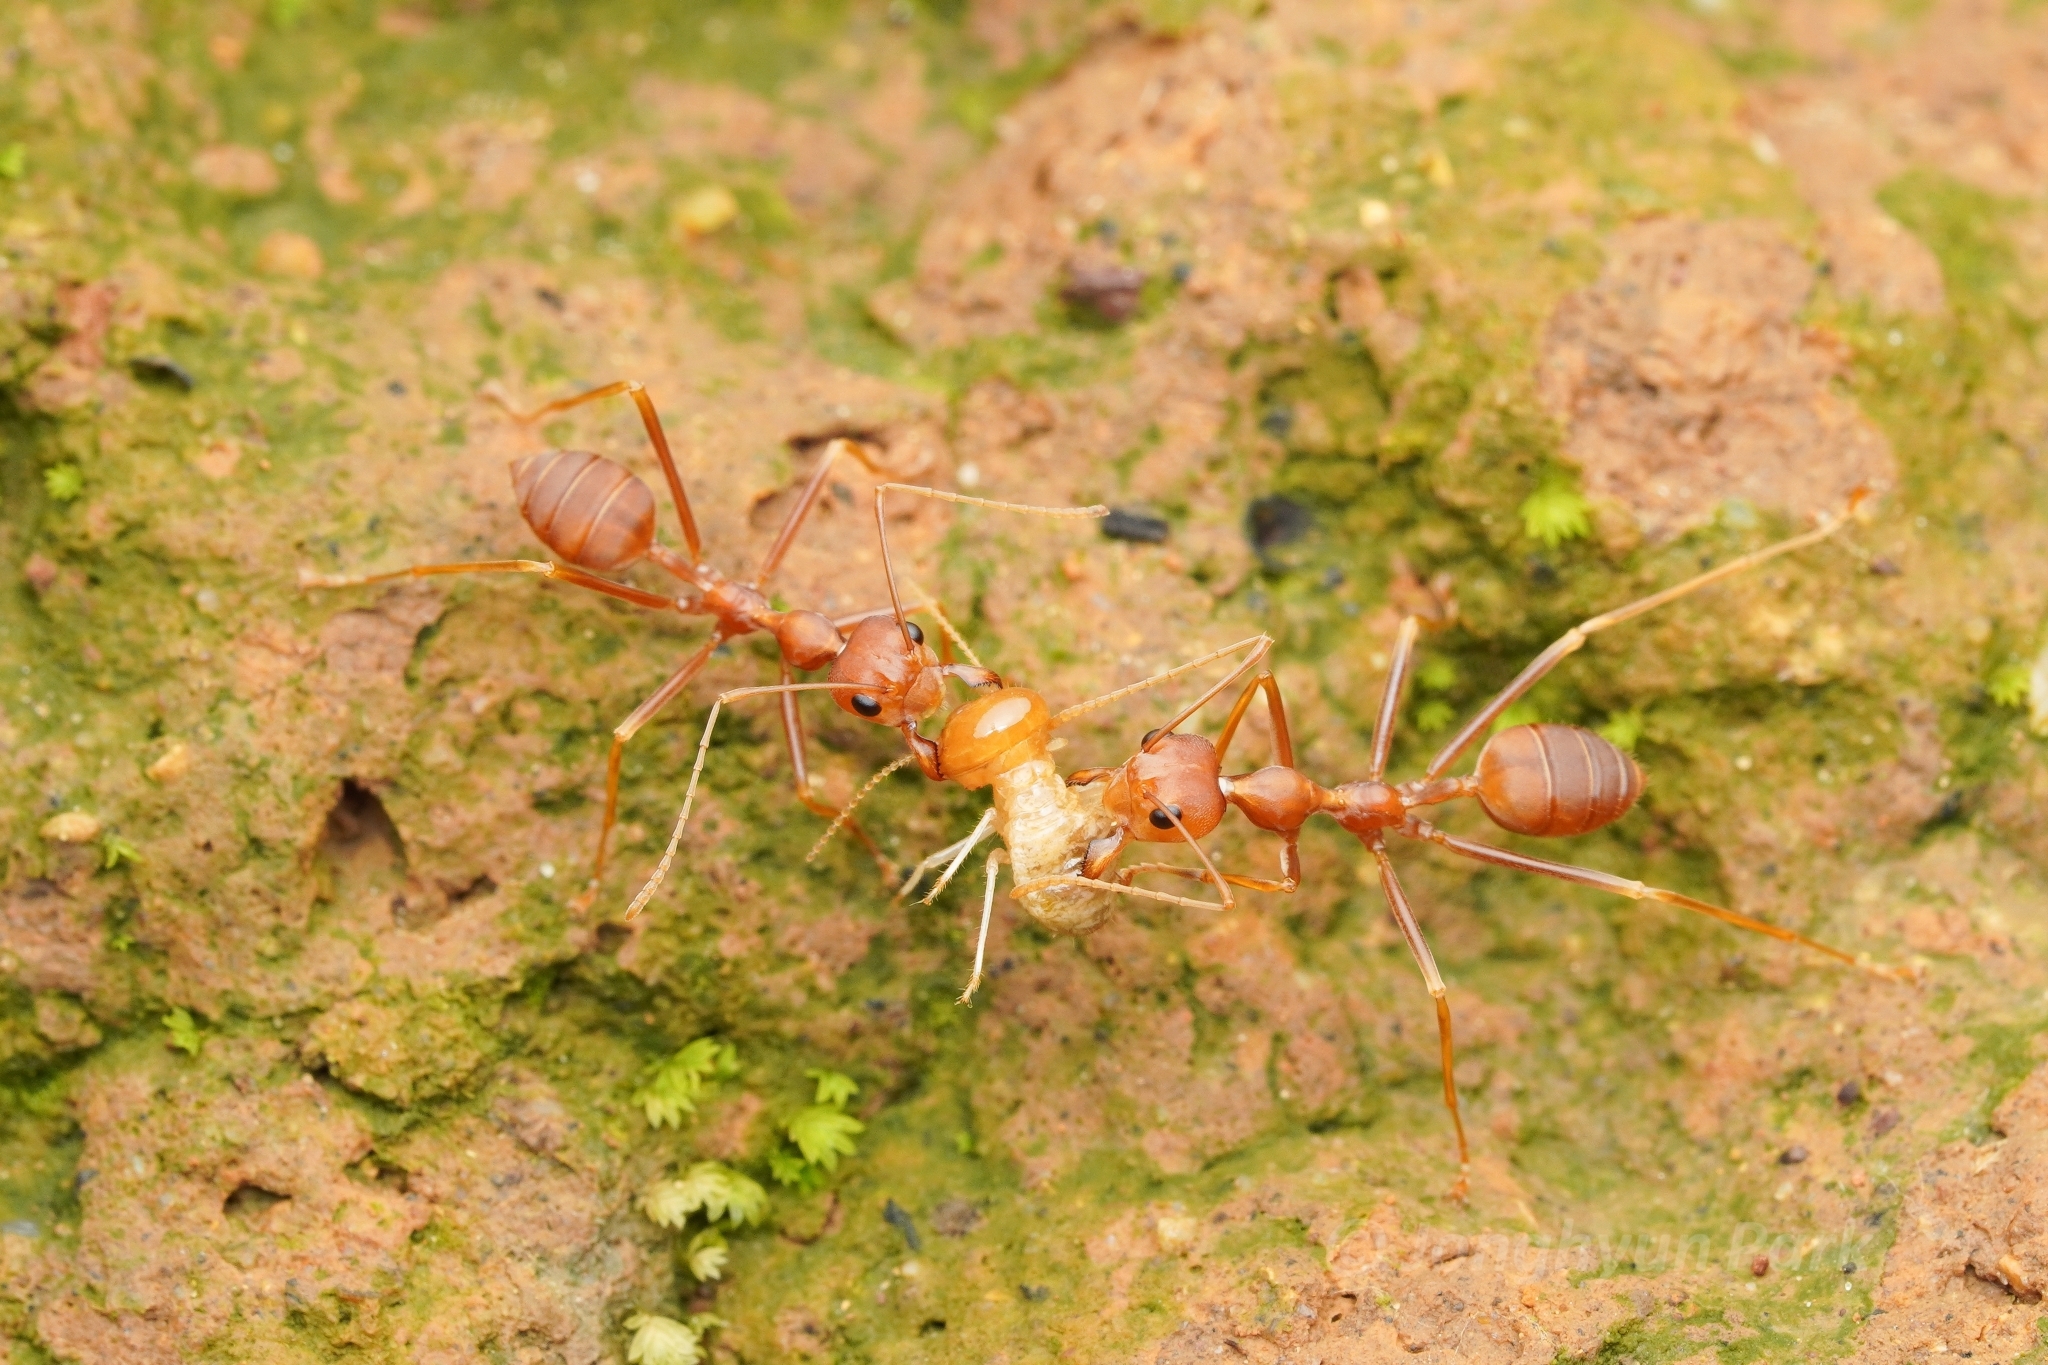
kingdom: Animalia
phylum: Arthropoda
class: Insecta
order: Hymenoptera
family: Formicidae
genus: Oecophylla
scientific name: Oecophylla smaragdina
